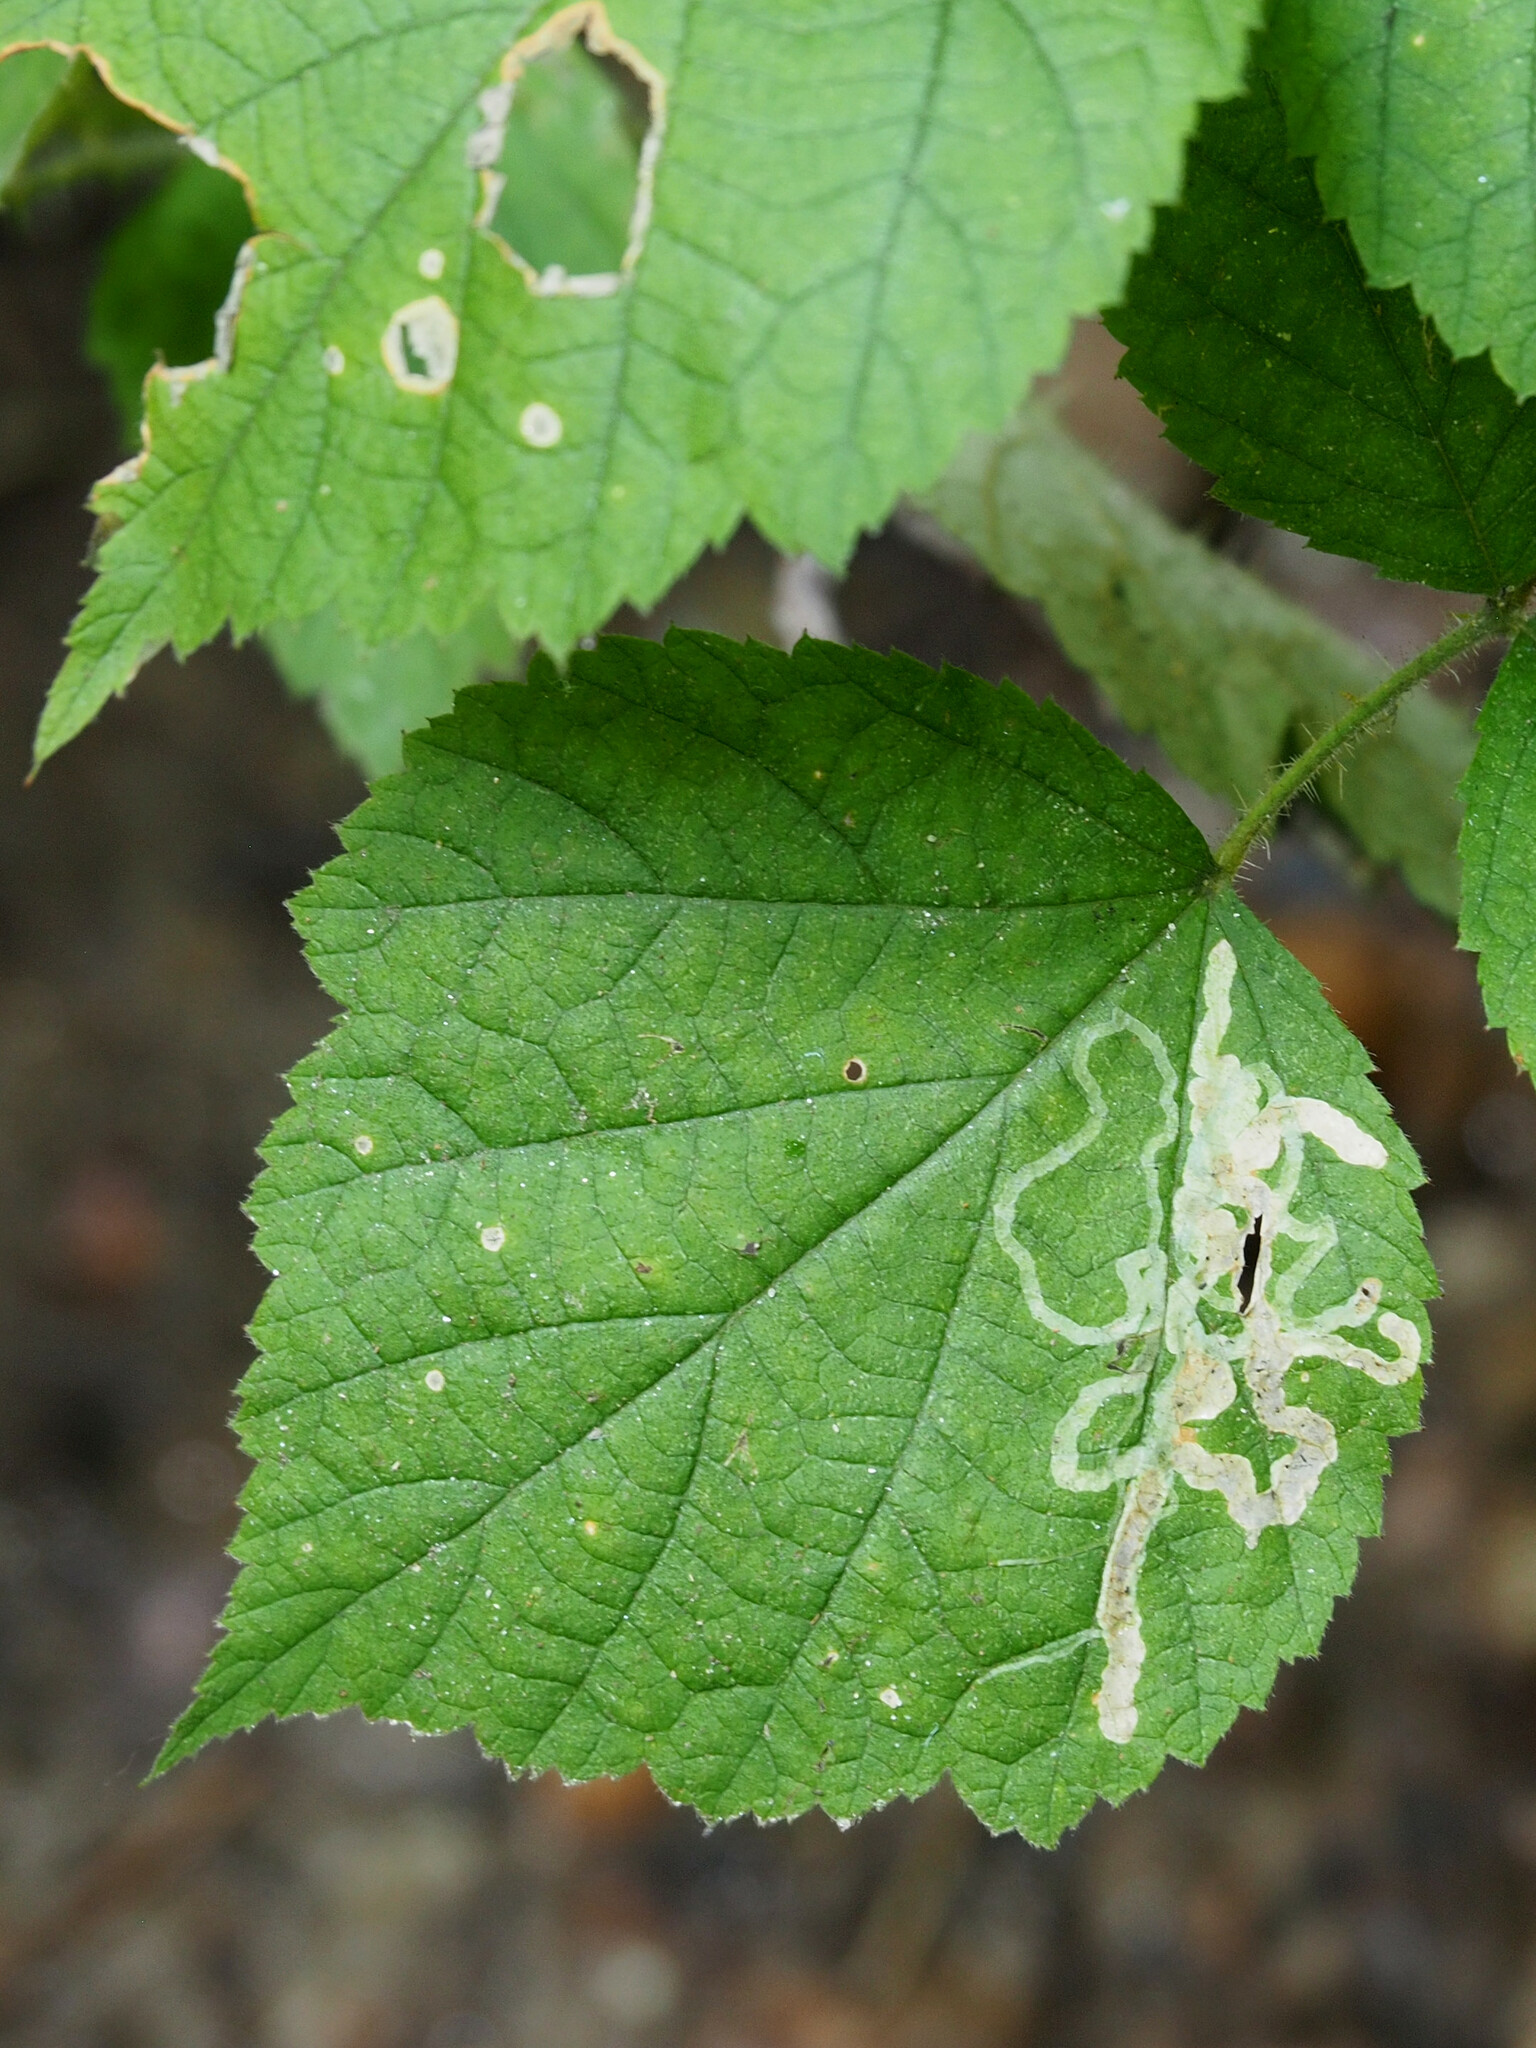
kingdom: Animalia
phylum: Arthropoda
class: Insecta
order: Diptera
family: Agromyzidae
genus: Agromyza
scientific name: Agromyza vockerothi
